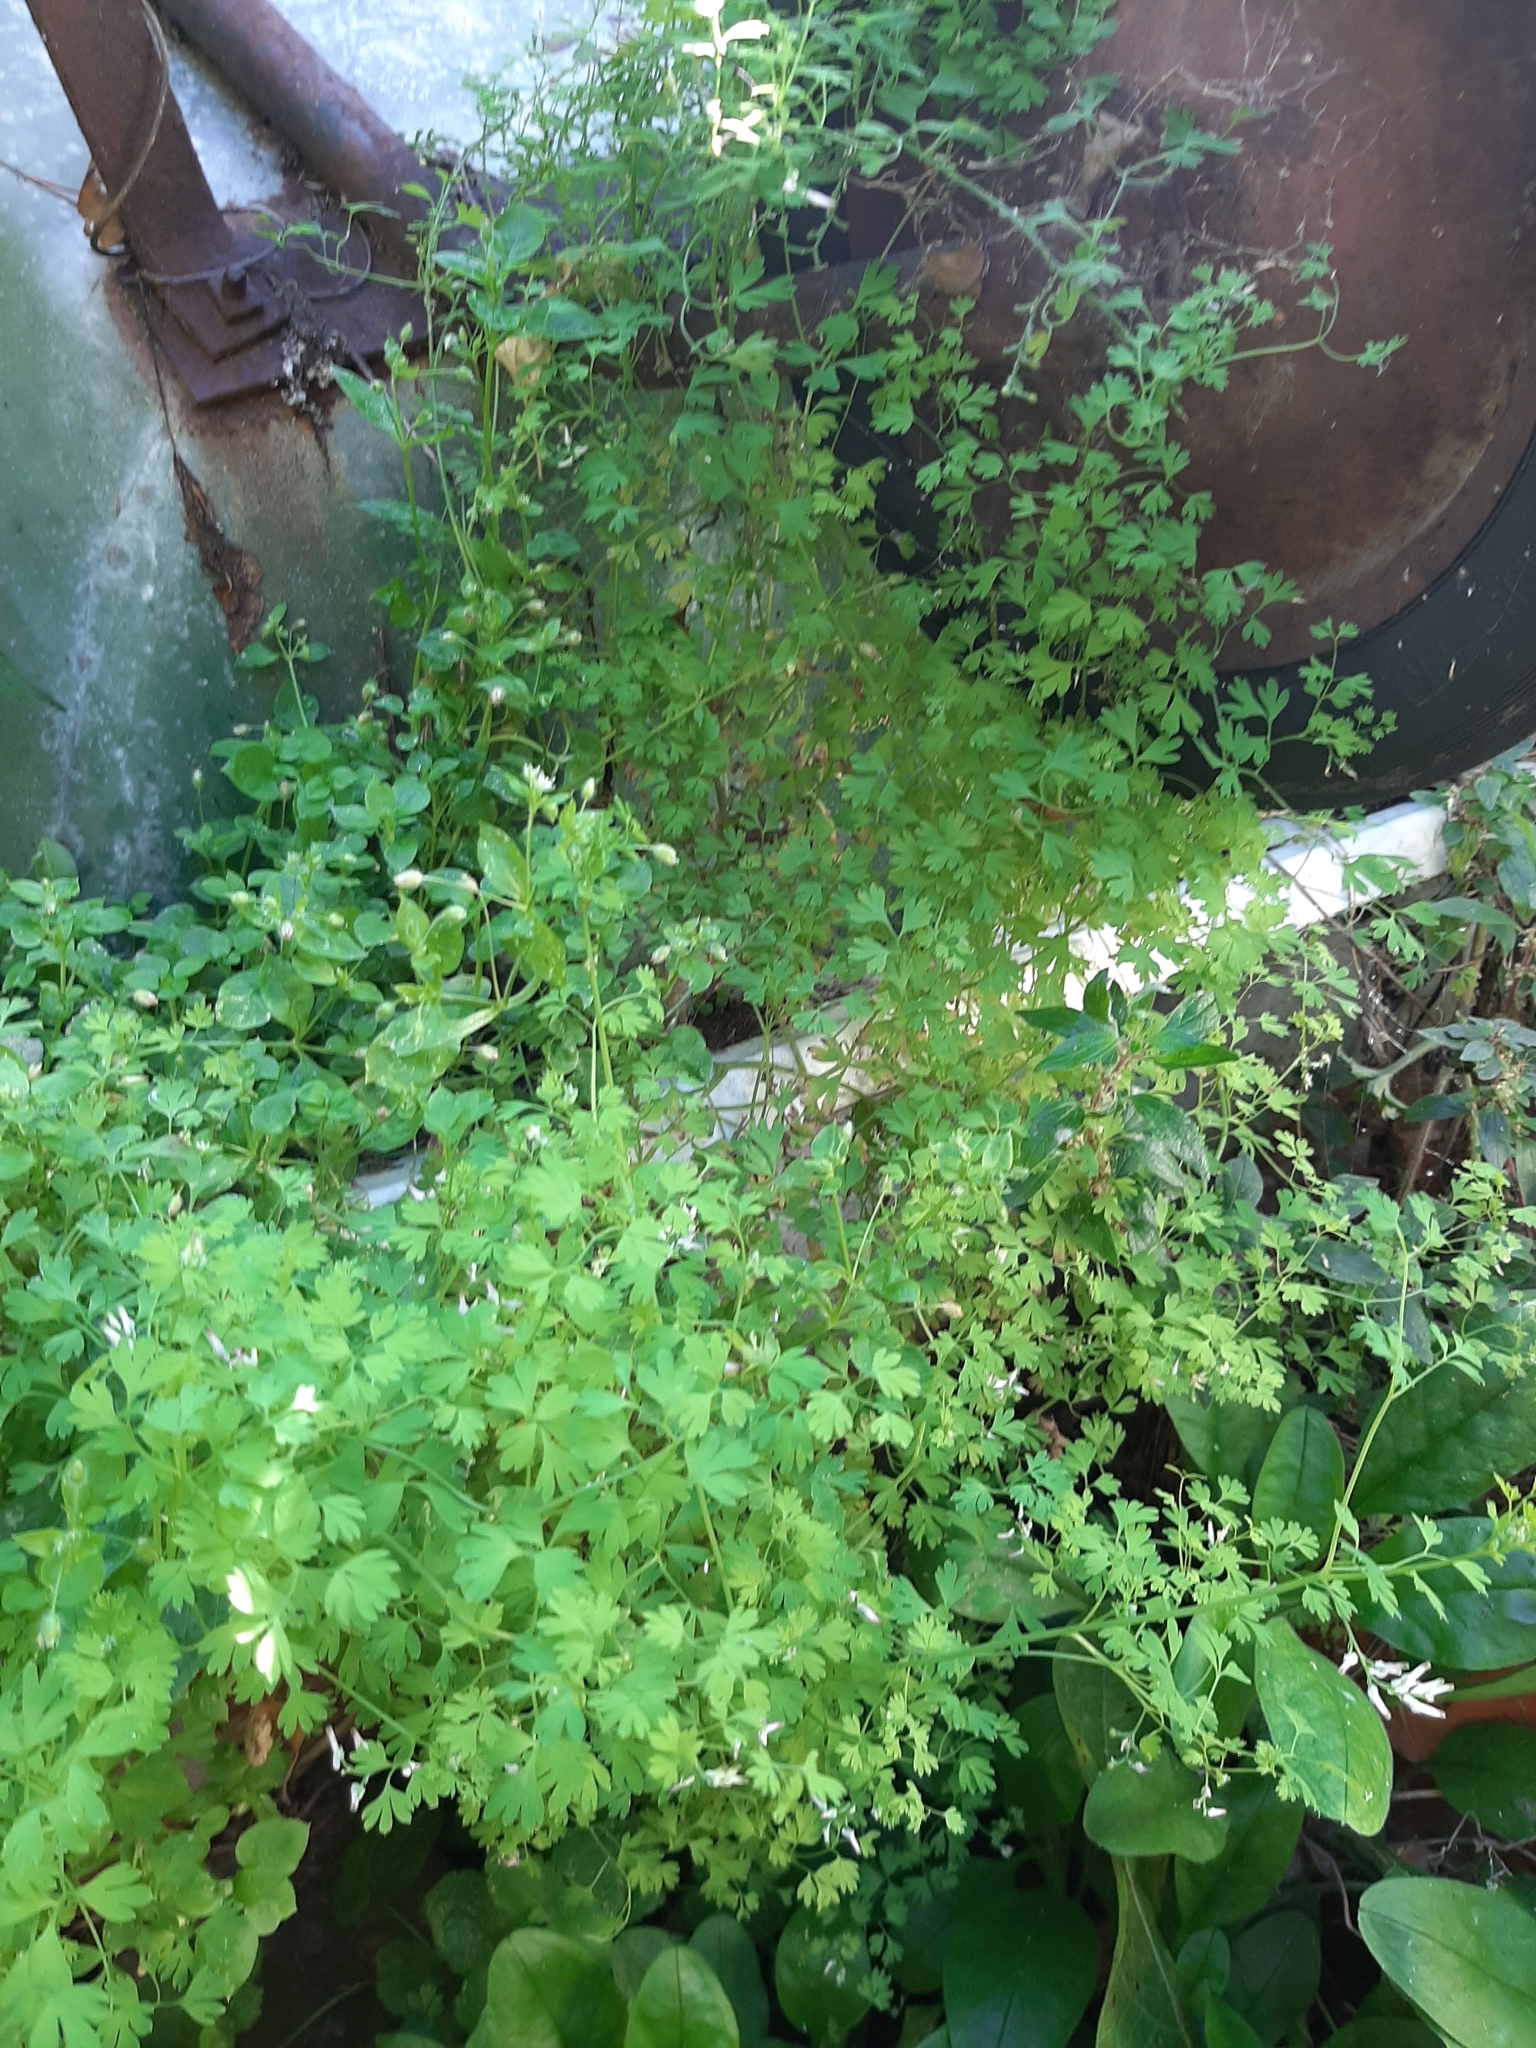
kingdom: Plantae
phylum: Tracheophyta
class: Magnoliopsida
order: Ranunculales
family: Papaveraceae
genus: Fumaria
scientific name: Fumaria muralis
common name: Common ramping-fumitory
